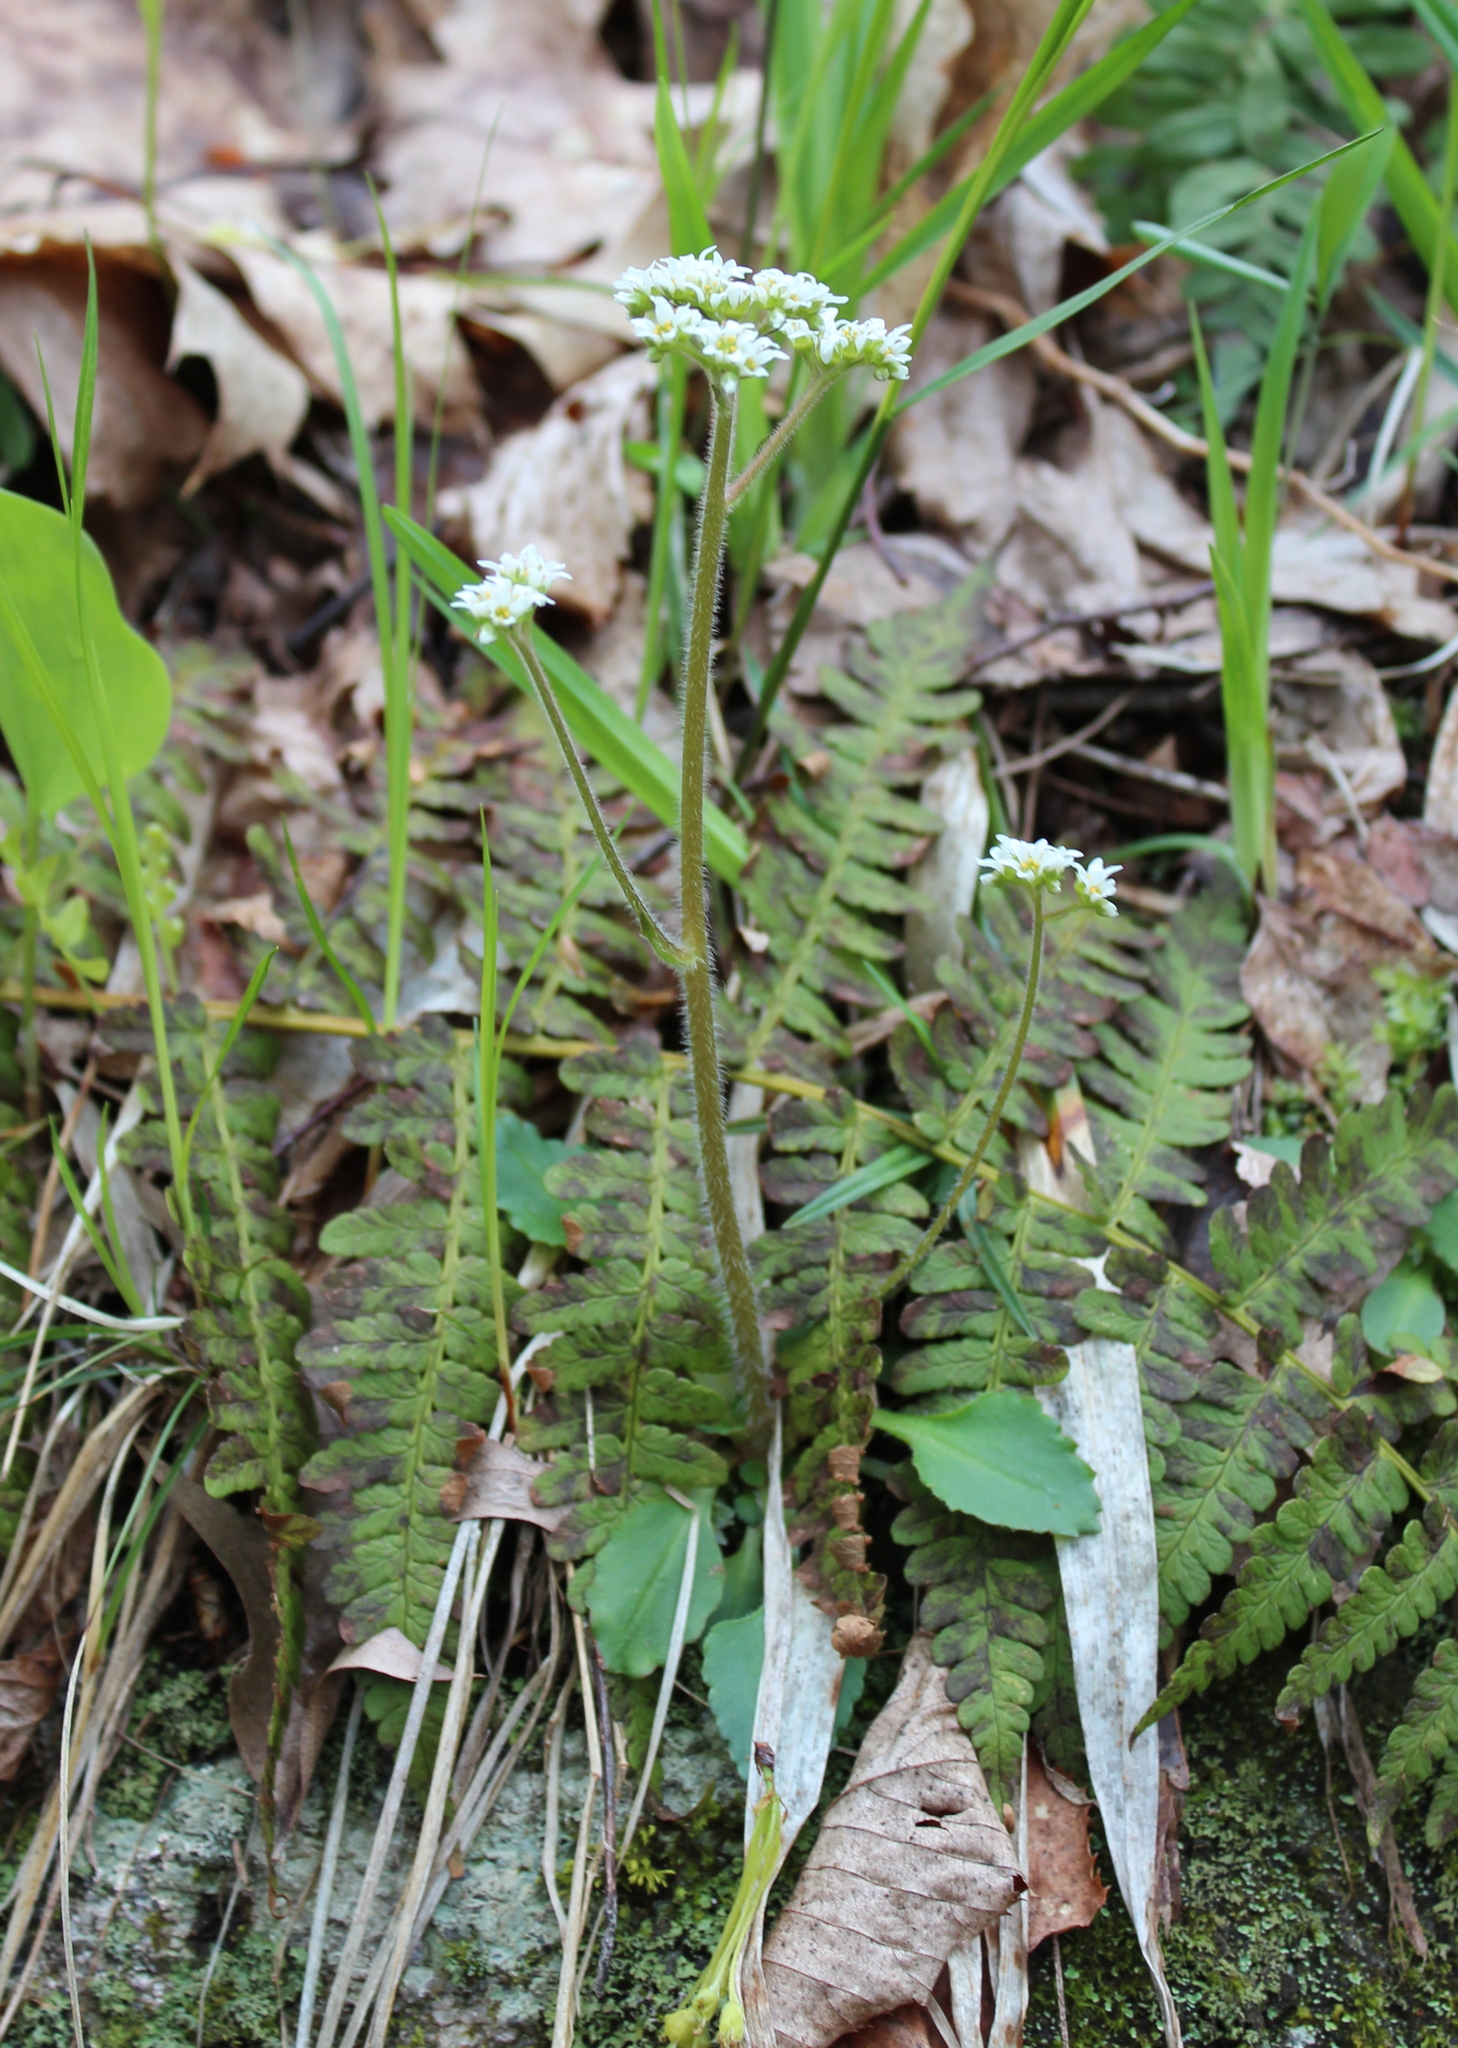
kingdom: Plantae
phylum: Tracheophyta
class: Magnoliopsida
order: Saxifragales
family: Saxifragaceae
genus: Micranthes
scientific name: Micranthes virginiensis
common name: Early saxifrage
